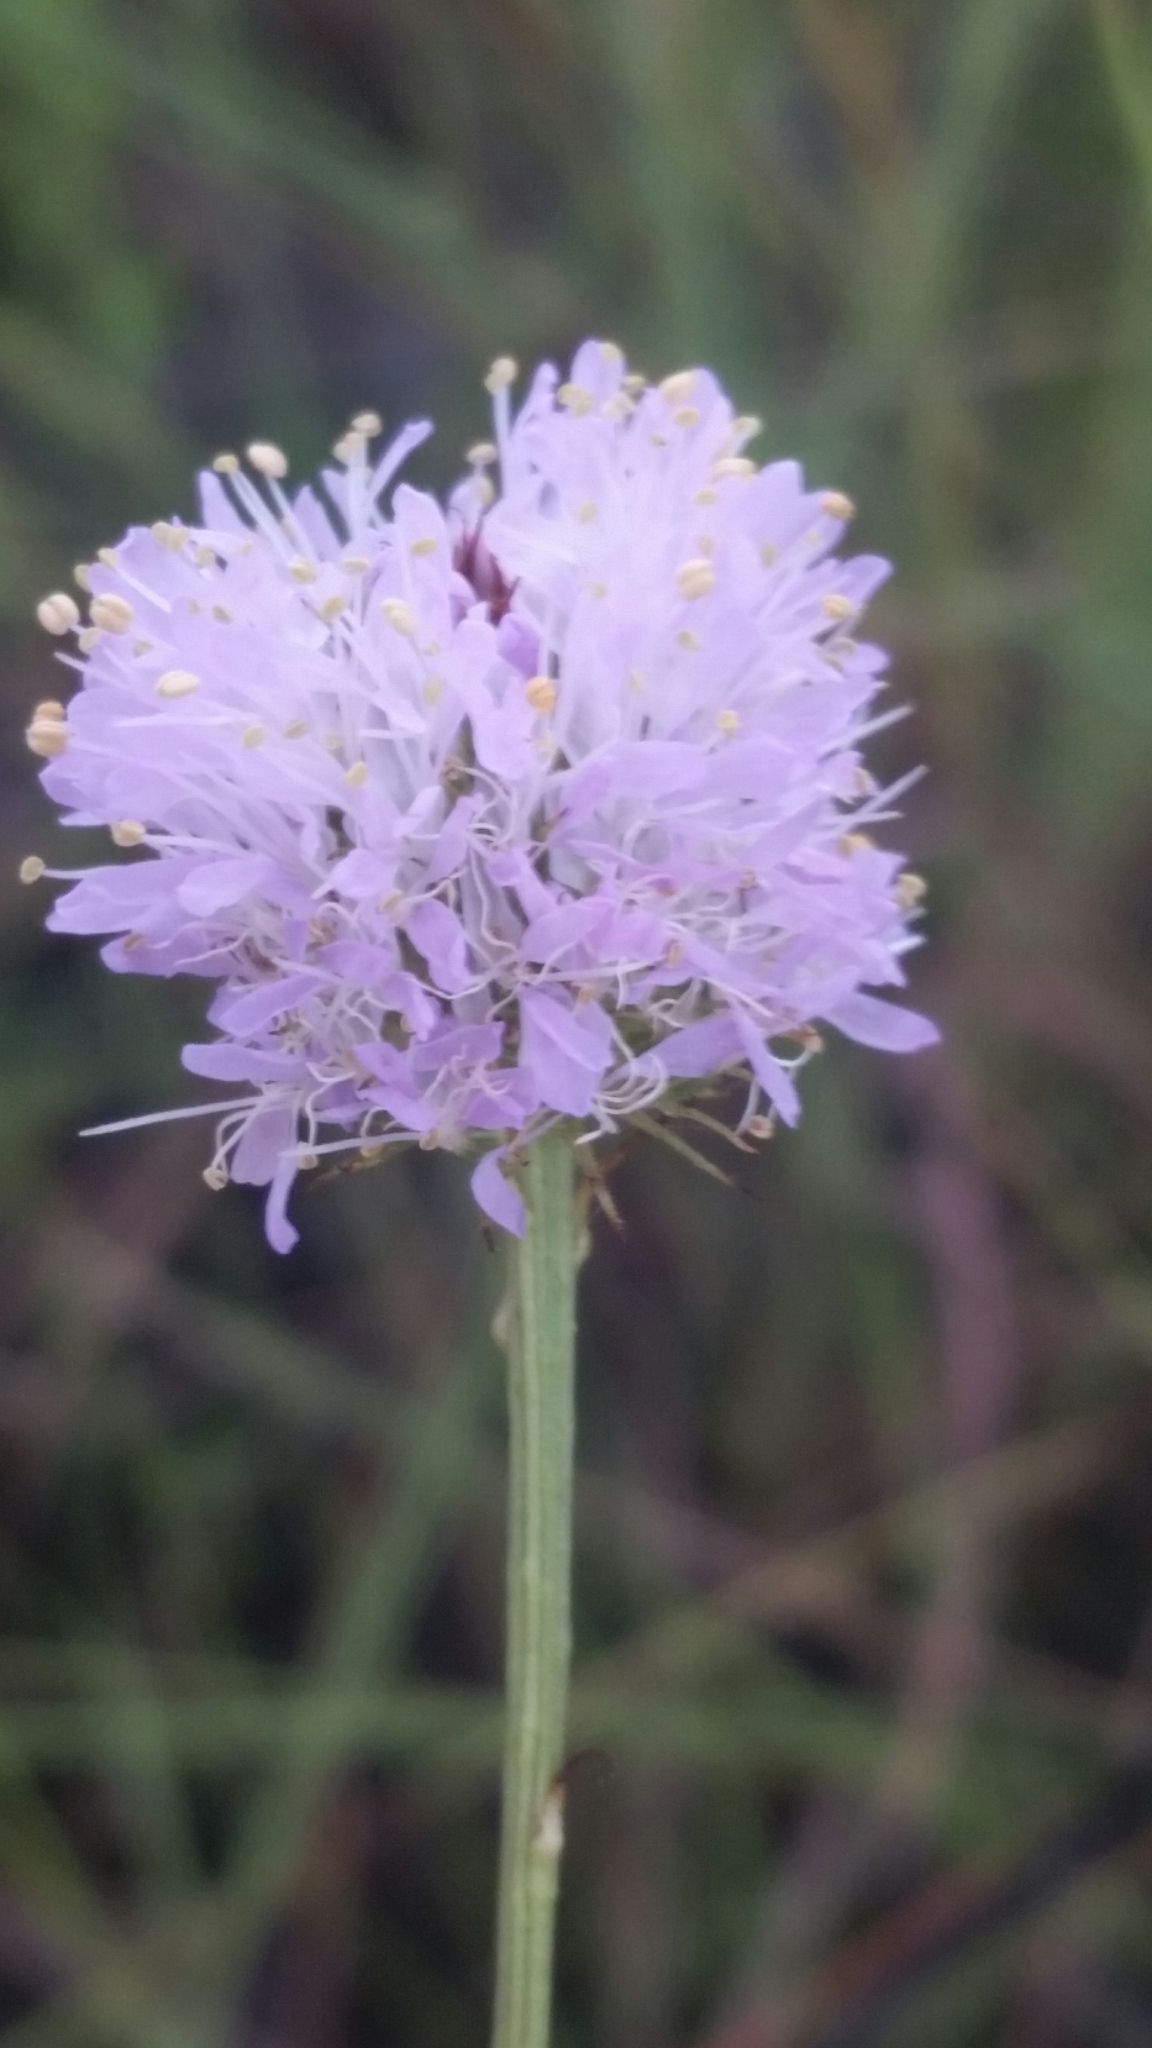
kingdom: Plantae
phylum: Tracheophyta
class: Magnoliopsida
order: Fabales
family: Fabaceae
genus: Dalea
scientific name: Dalea carnea
